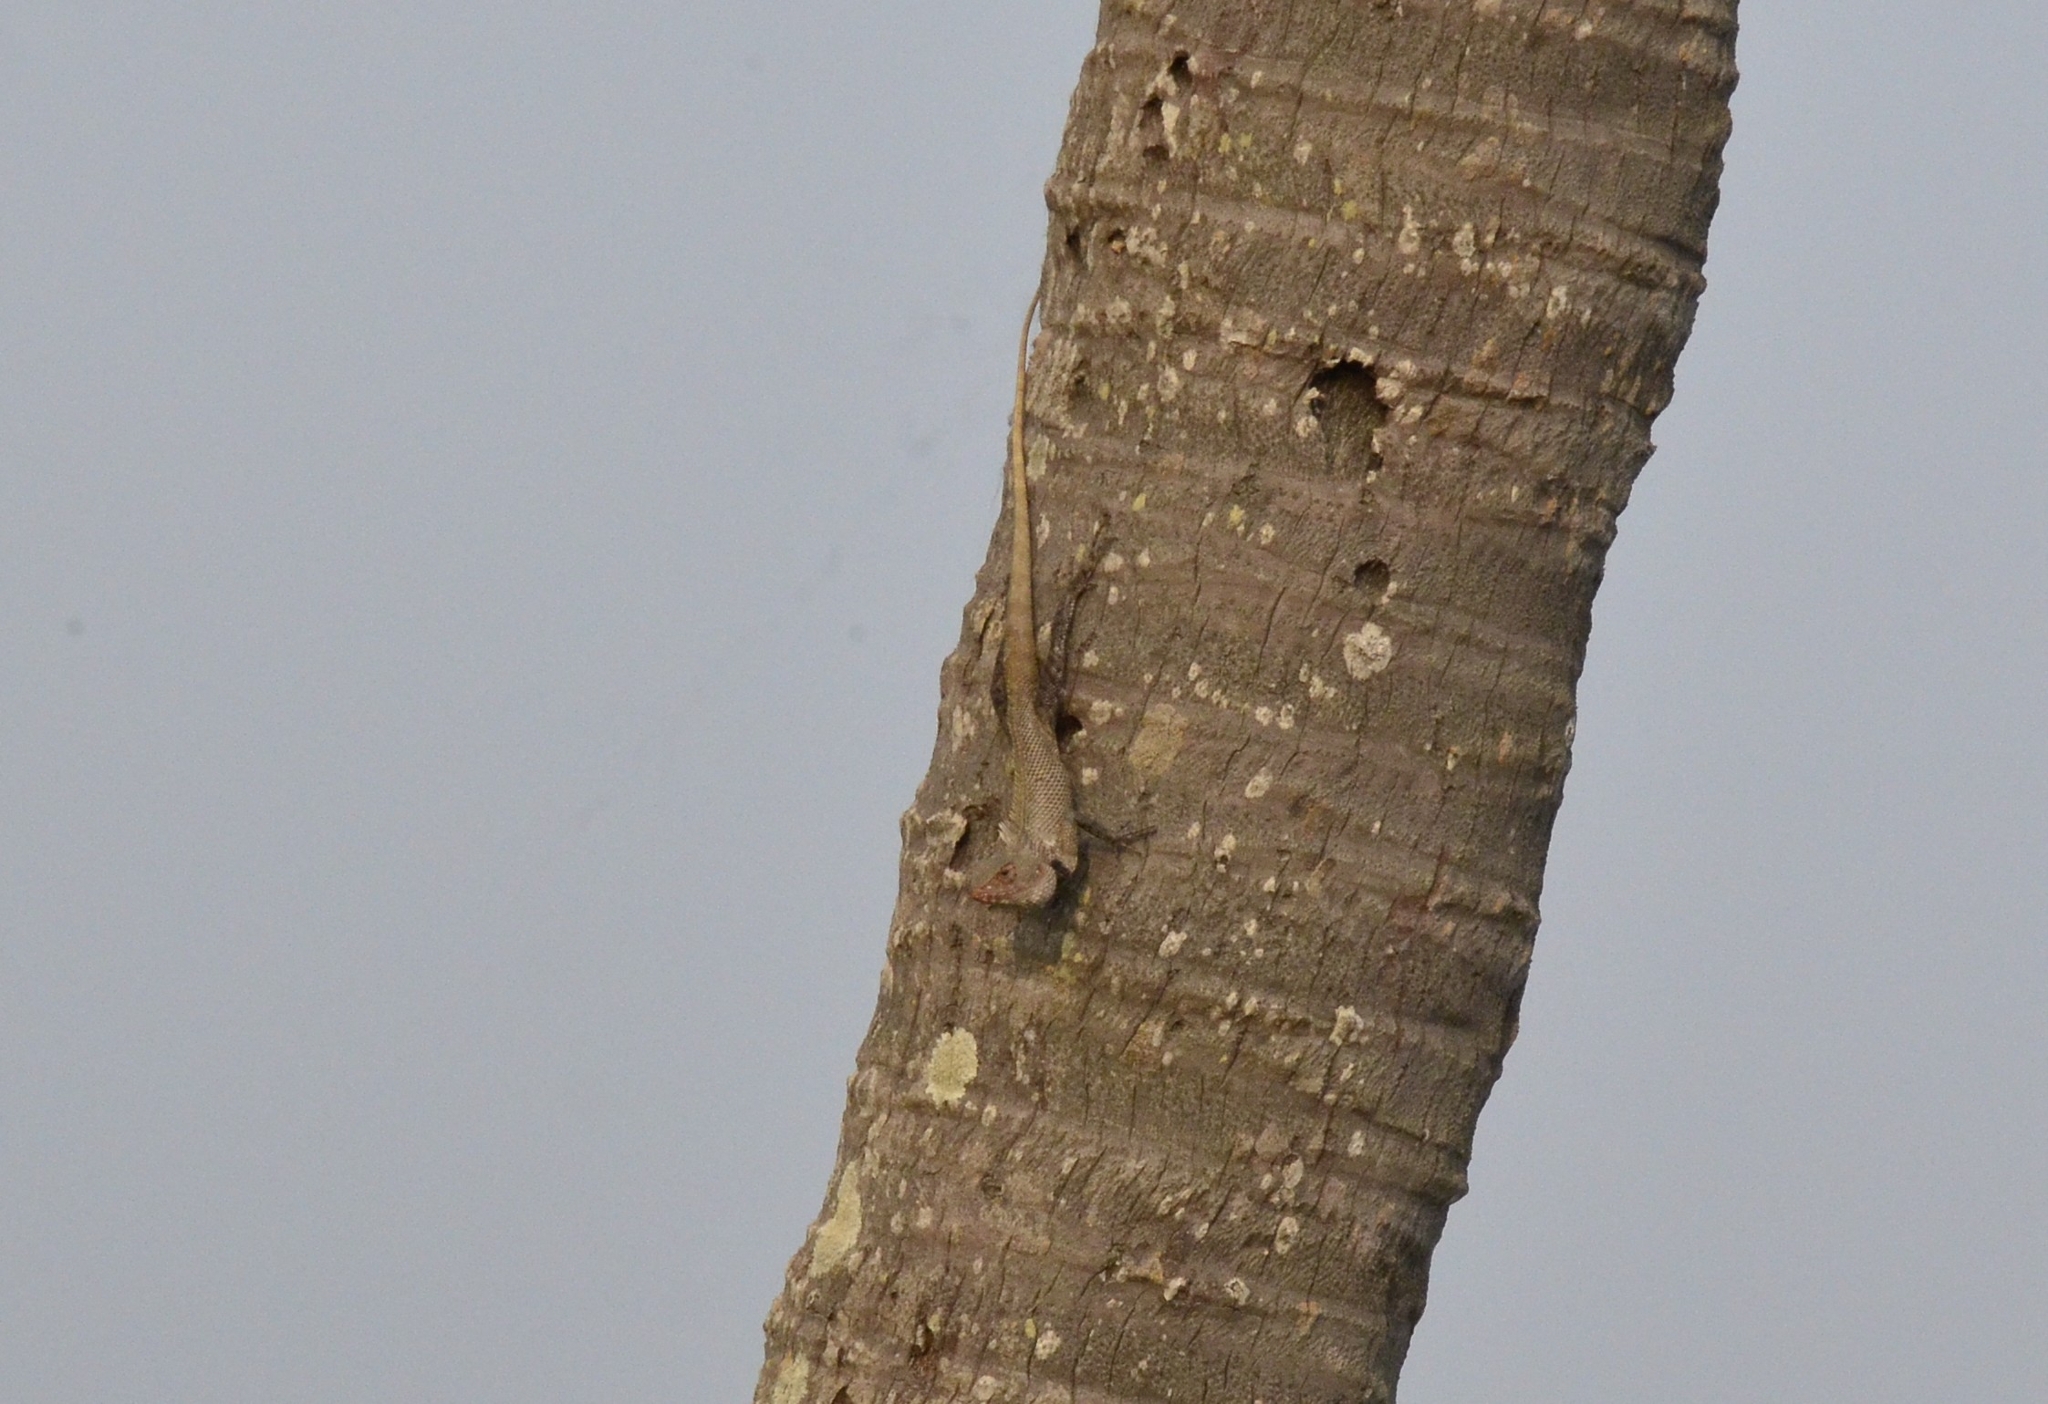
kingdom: Animalia
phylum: Chordata
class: Squamata
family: Agamidae
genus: Calotes
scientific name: Calotes versicolor
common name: Oriental garden lizard
